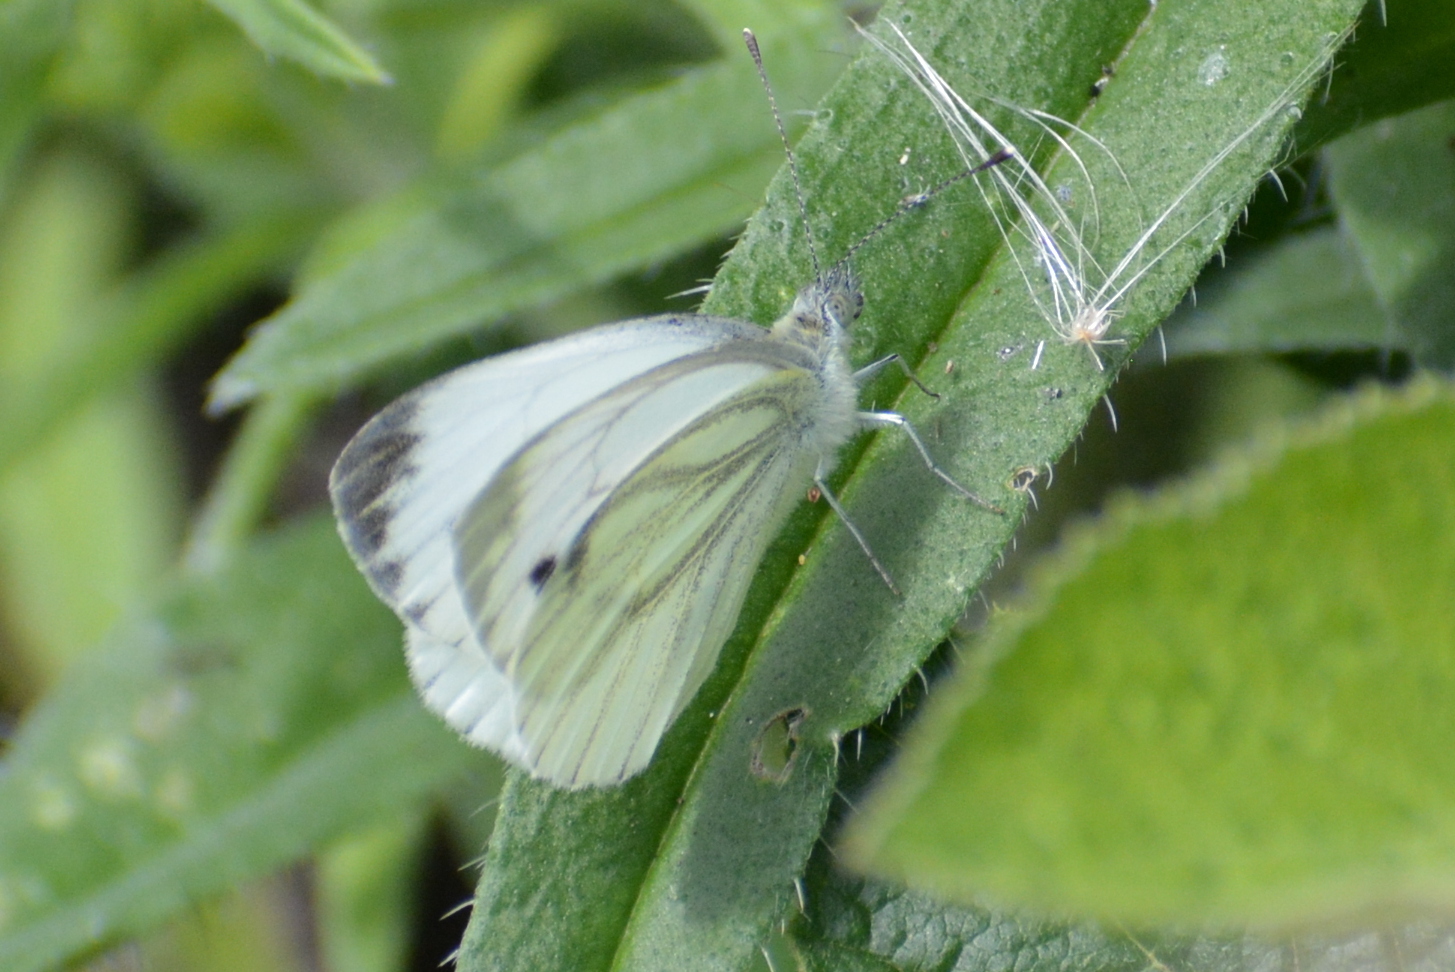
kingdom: Animalia
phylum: Arthropoda
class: Insecta
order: Lepidoptera
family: Pieridae
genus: Pieris
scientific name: Pieris napi
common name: Green-veined white
